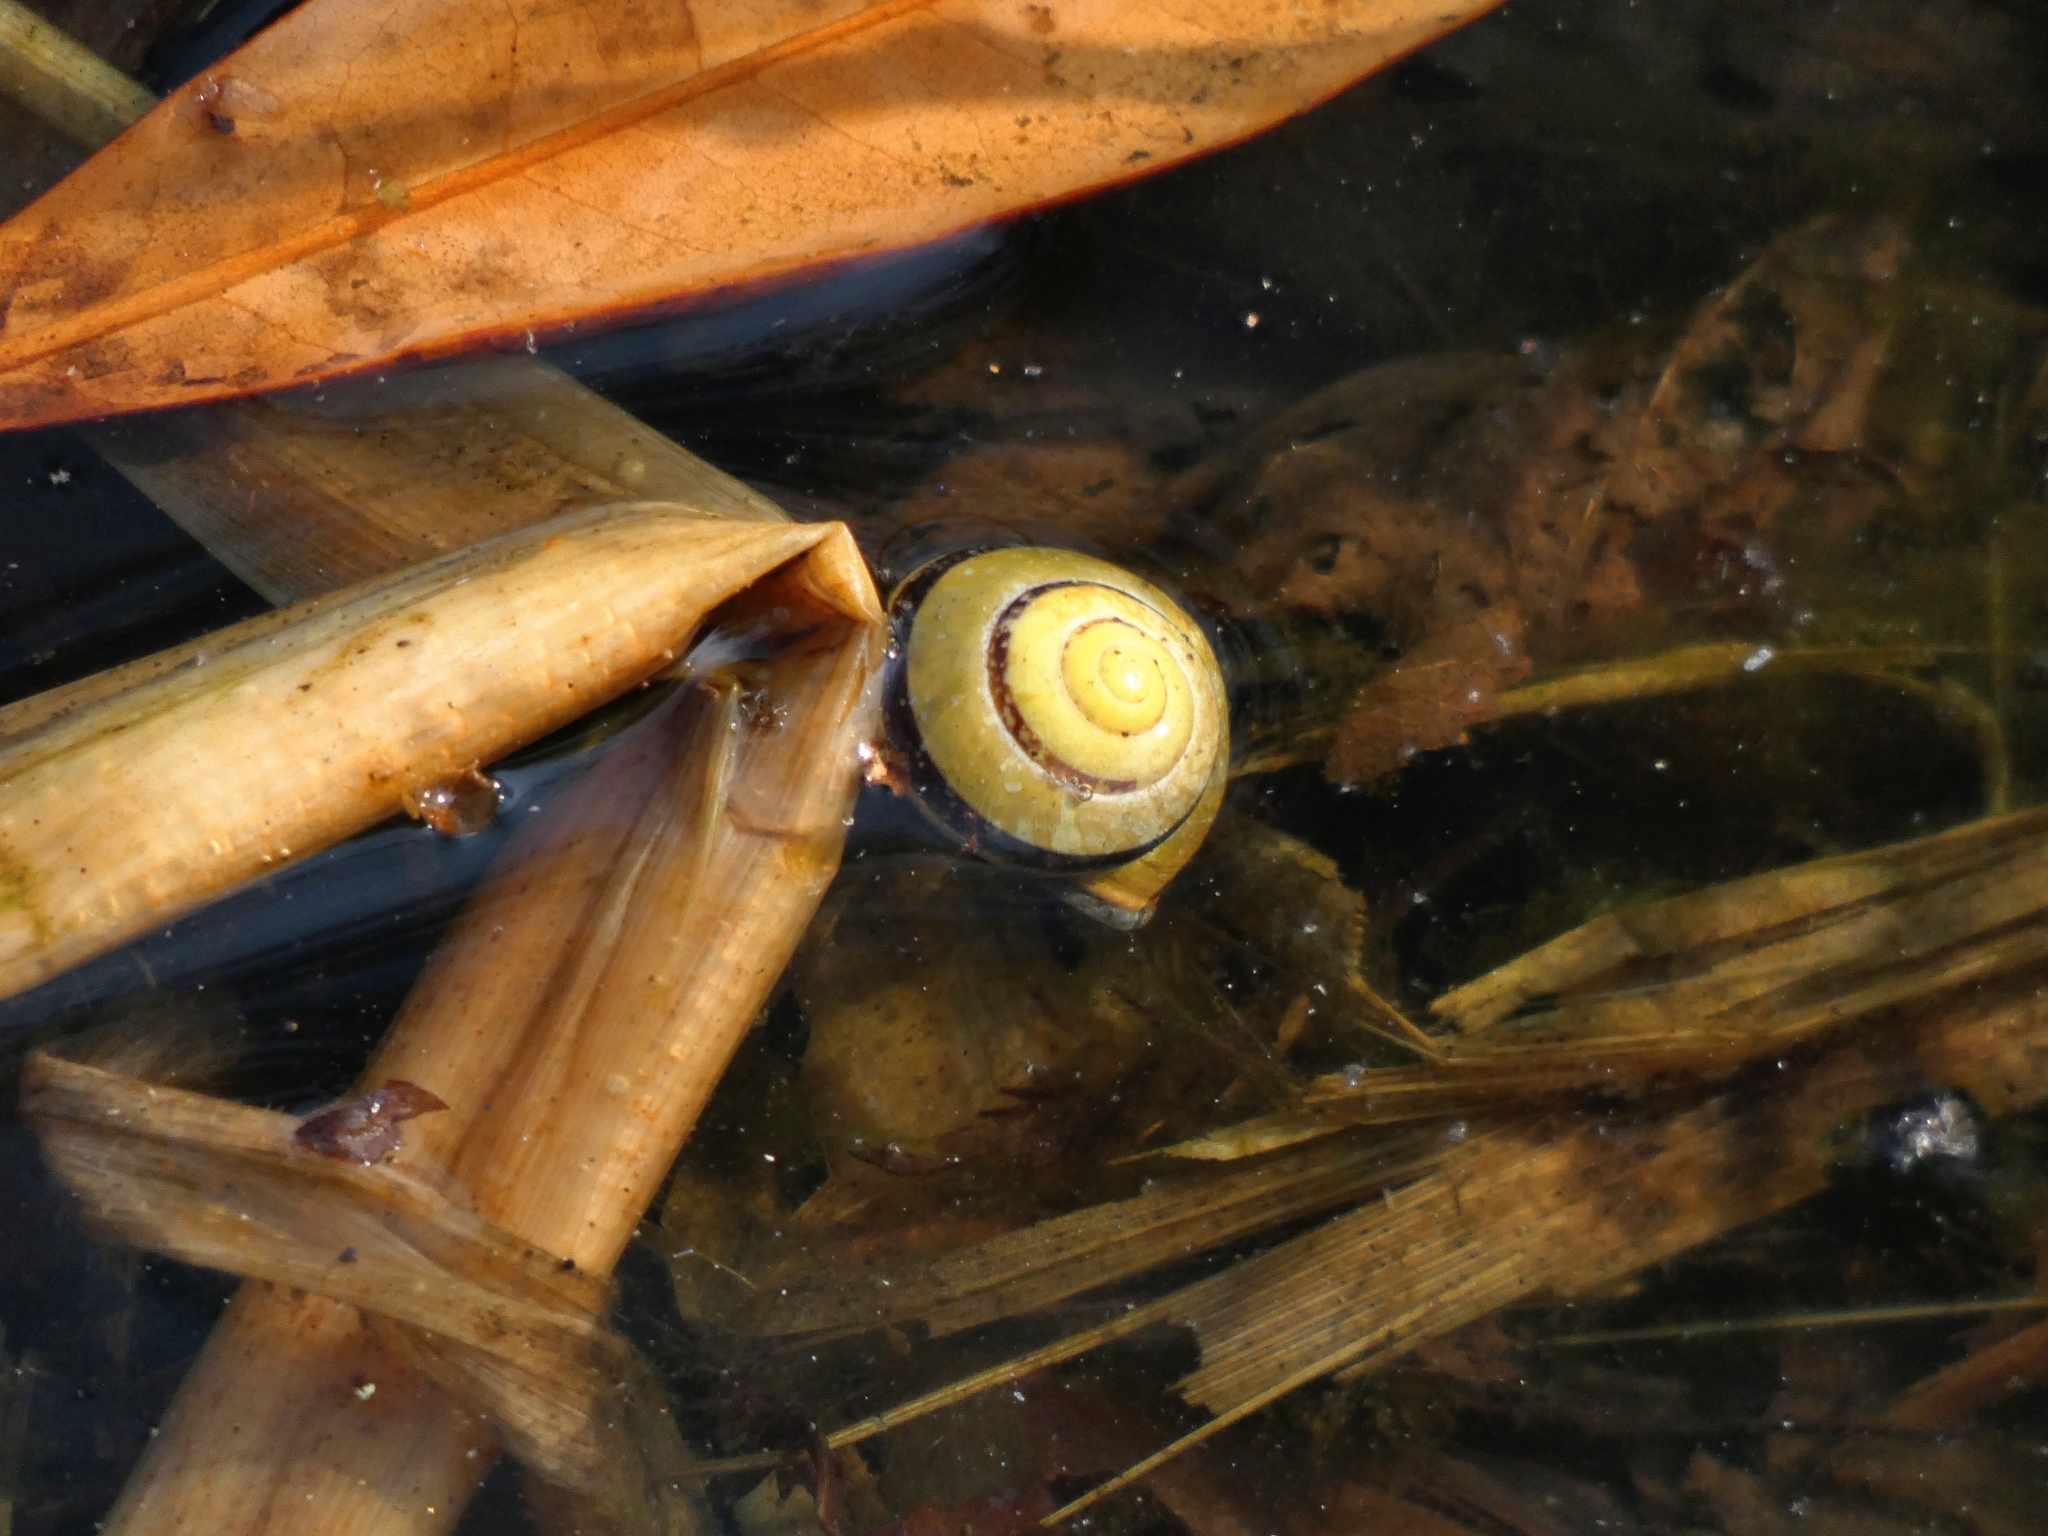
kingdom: Animalia
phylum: Mollusca
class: Gastropoda
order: Stylommatophora
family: Helicidae
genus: Cepaea
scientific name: Cepaea nemoralis
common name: Grovesnail
